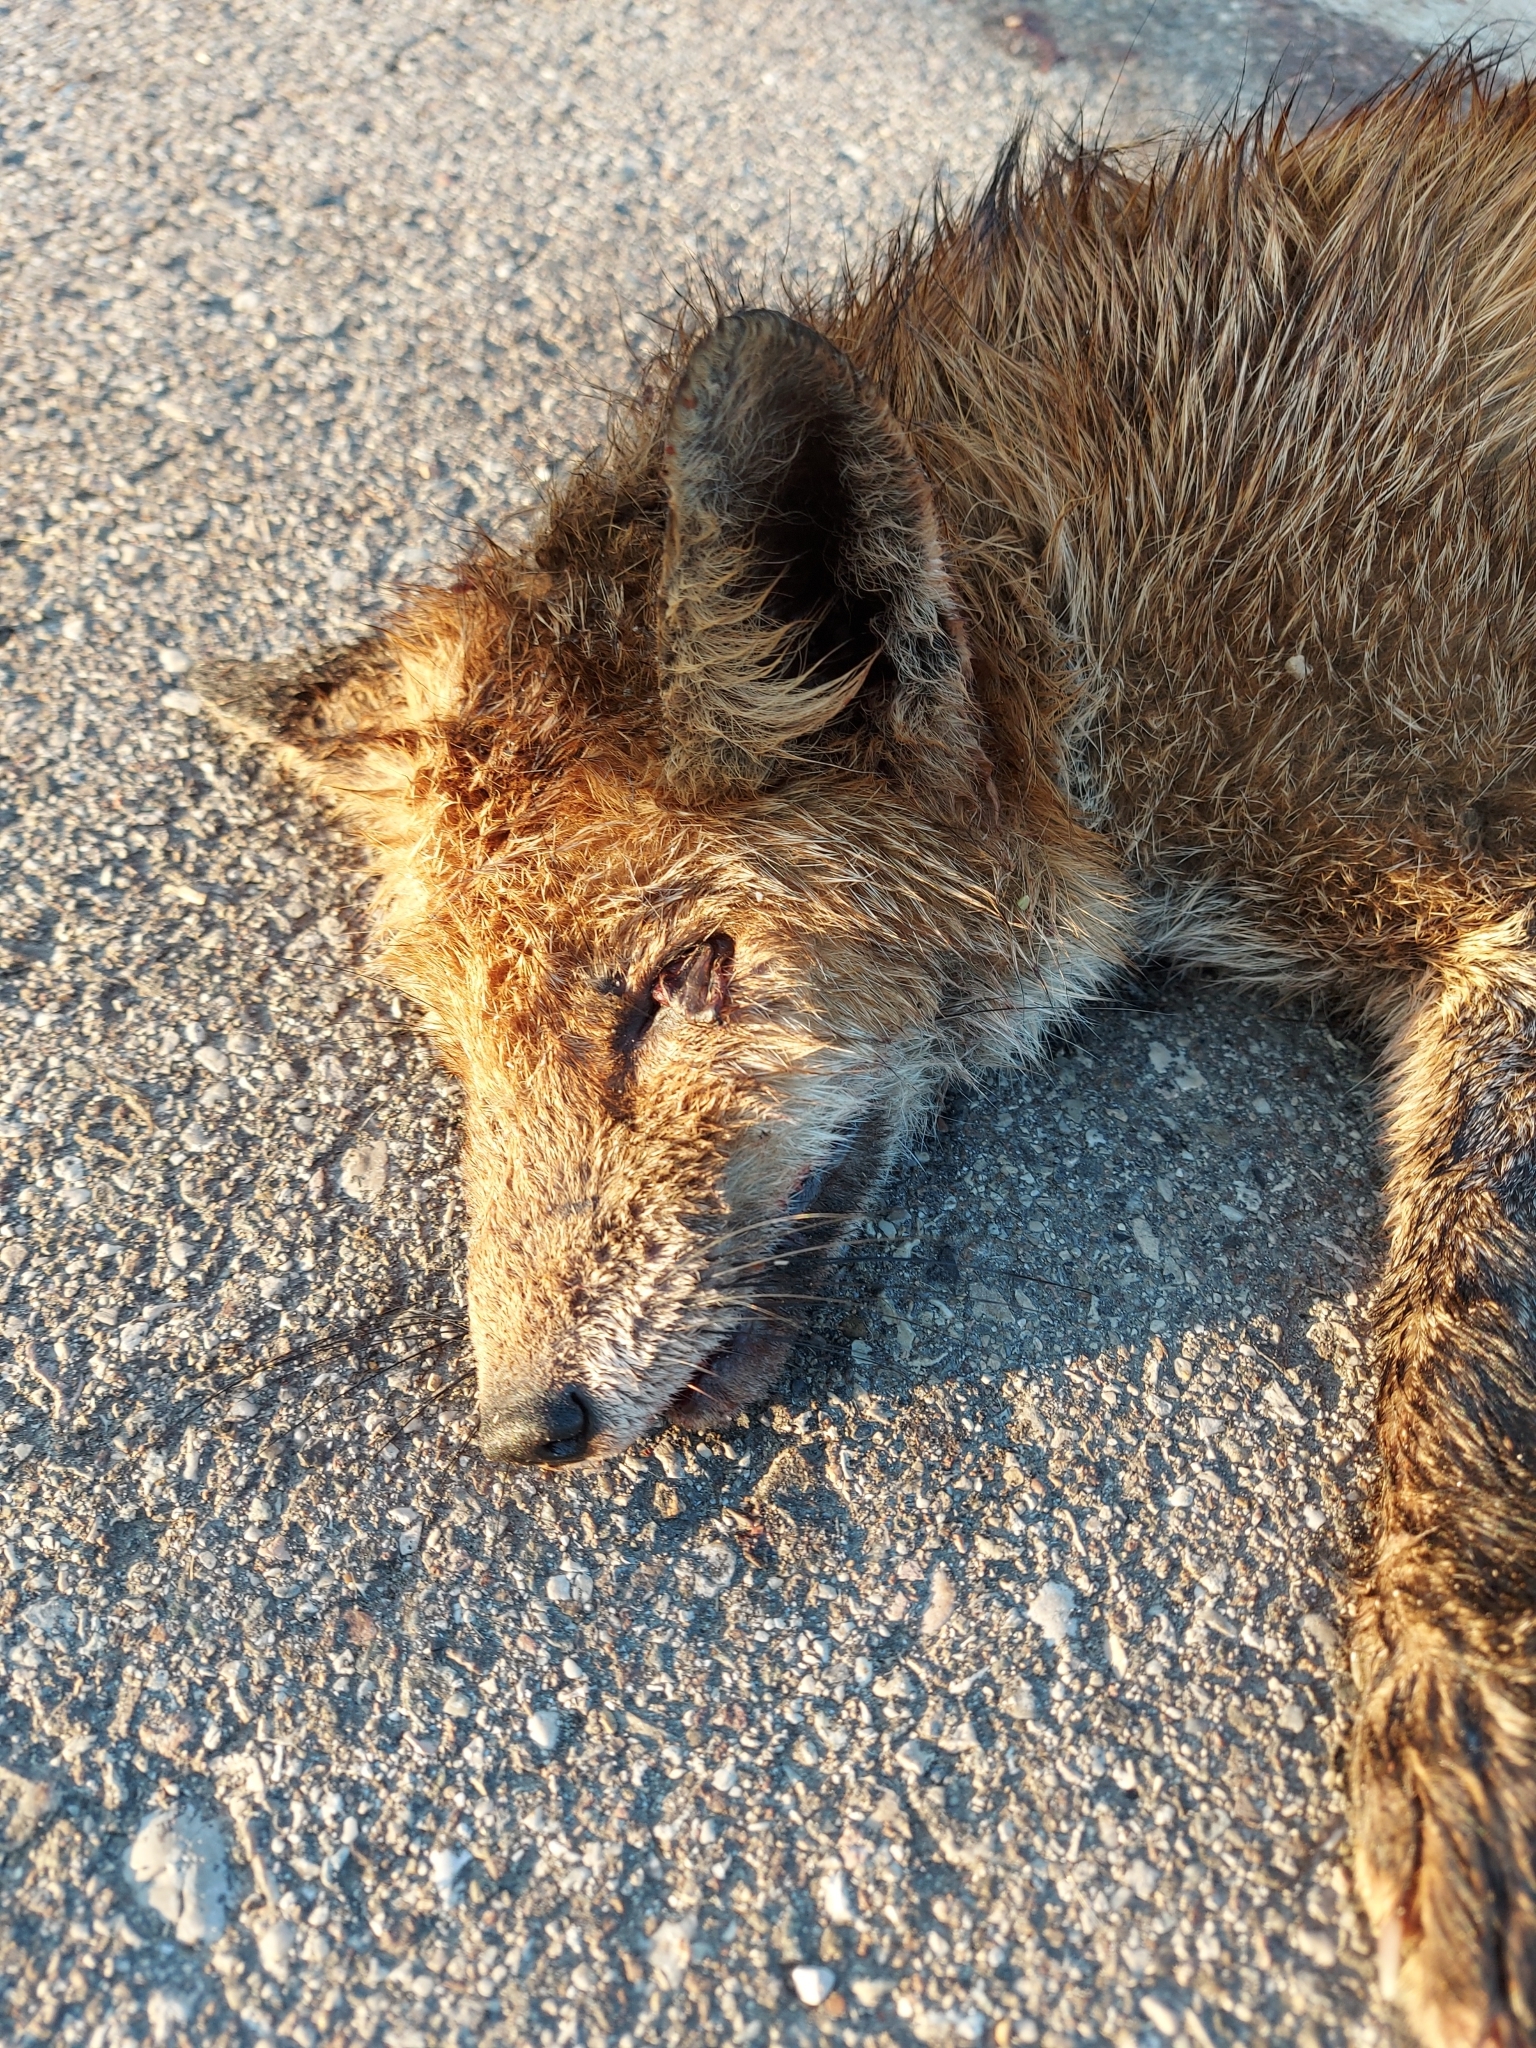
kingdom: Animalia
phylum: Chordata
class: Mammalia
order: Carnivora
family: Canidae
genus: Vulpes
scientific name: Vulpes vulpes
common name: Red fox
